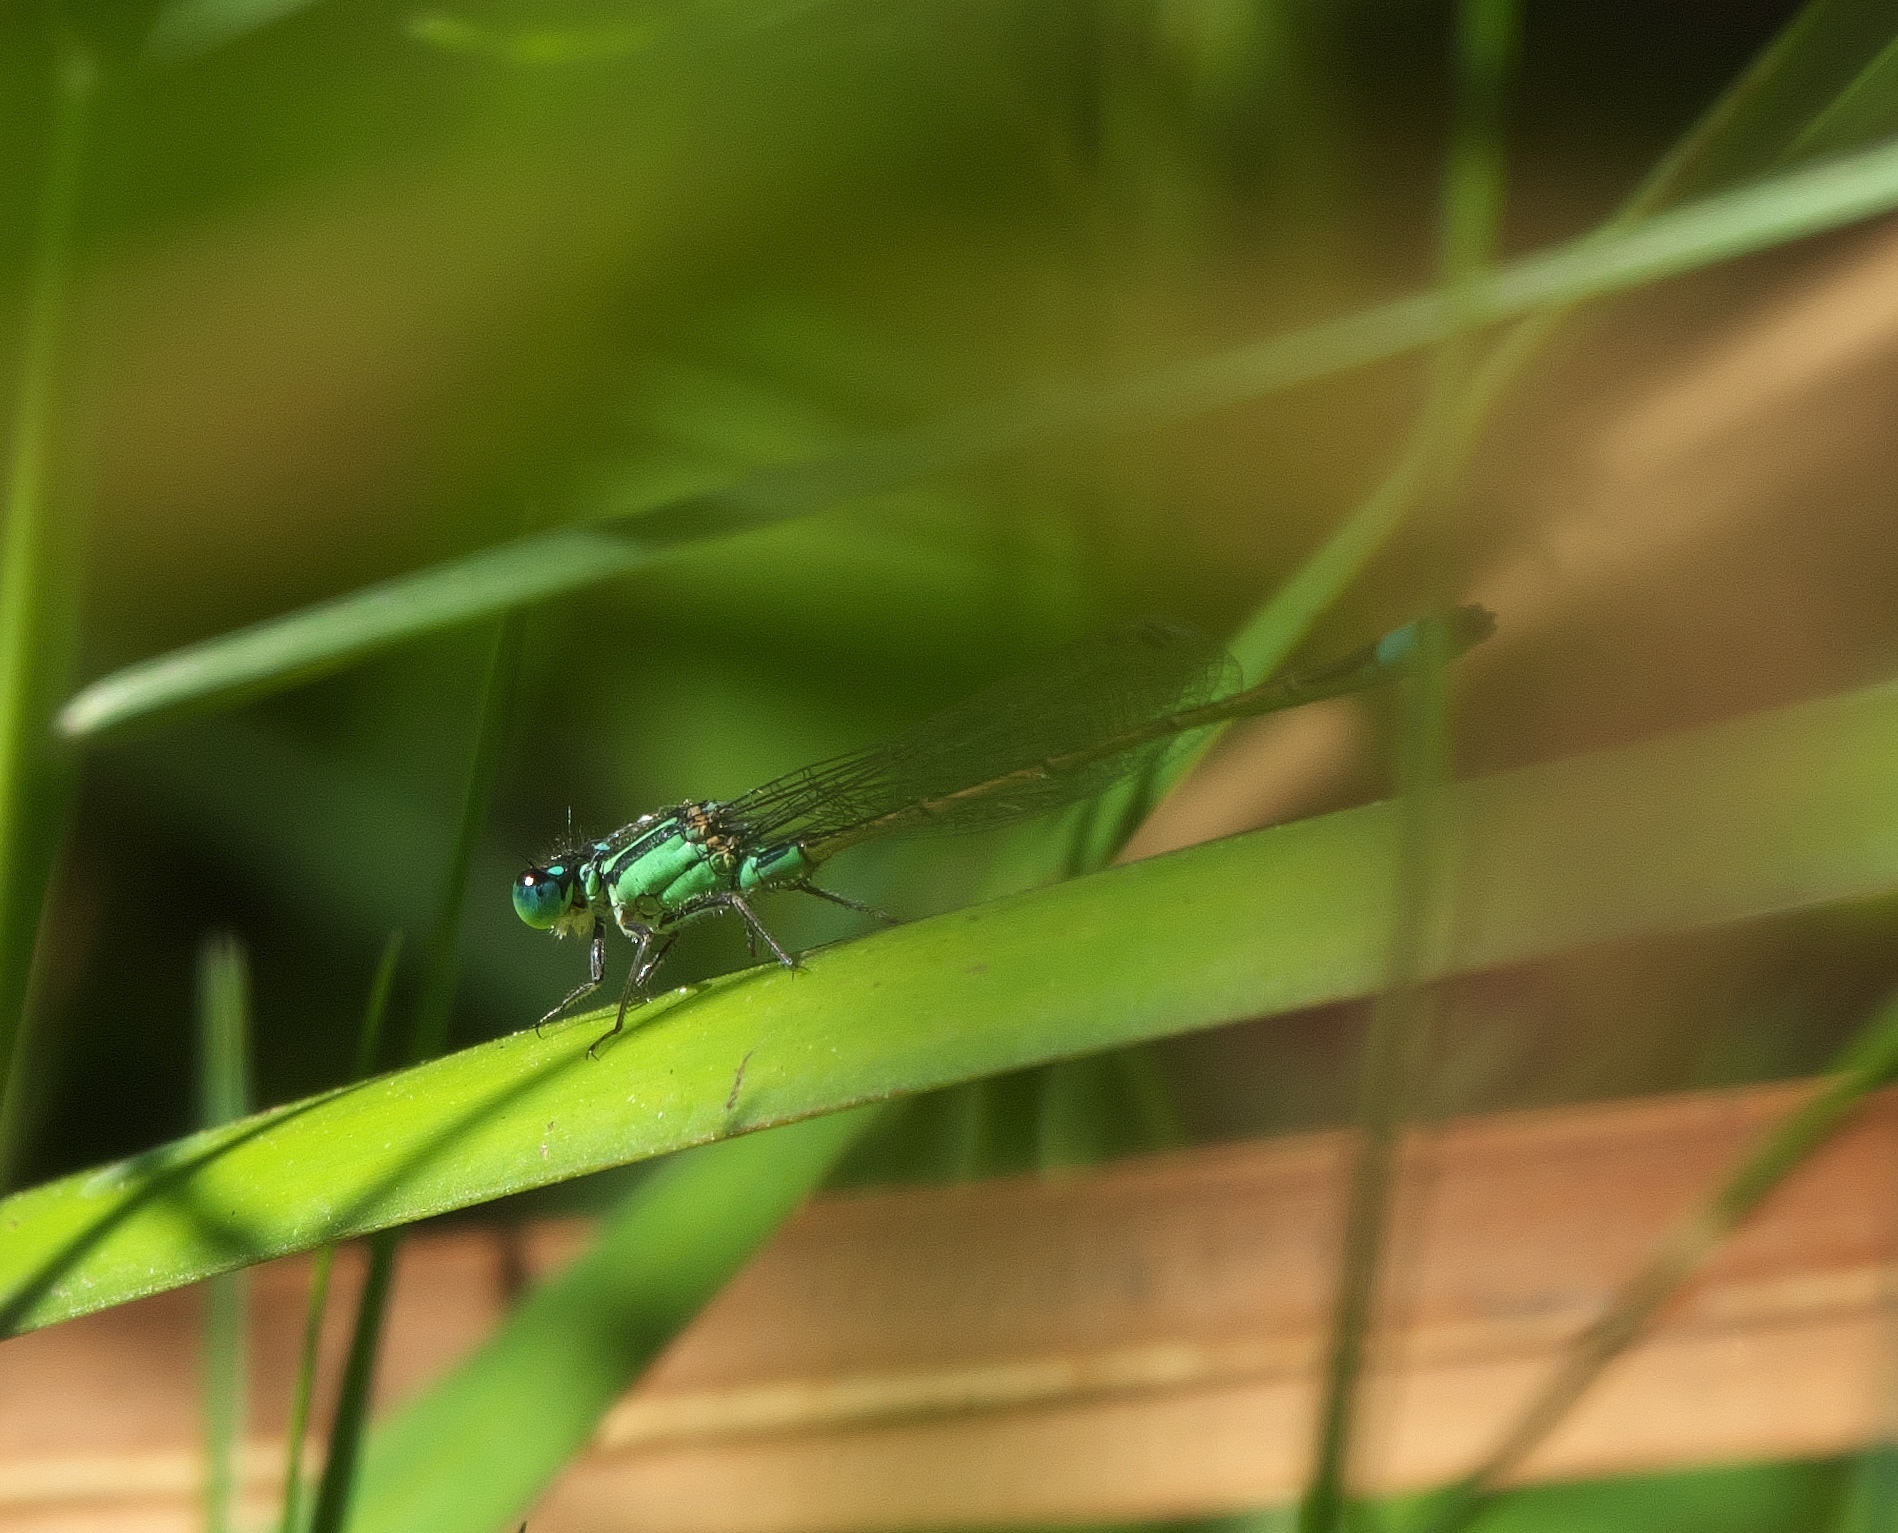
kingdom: Animalia
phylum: Arthropoda
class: Insecta
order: Odonata
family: Coenagrionidae
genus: Ischnura
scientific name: Ischnura heterosticta
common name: Common bluetail
